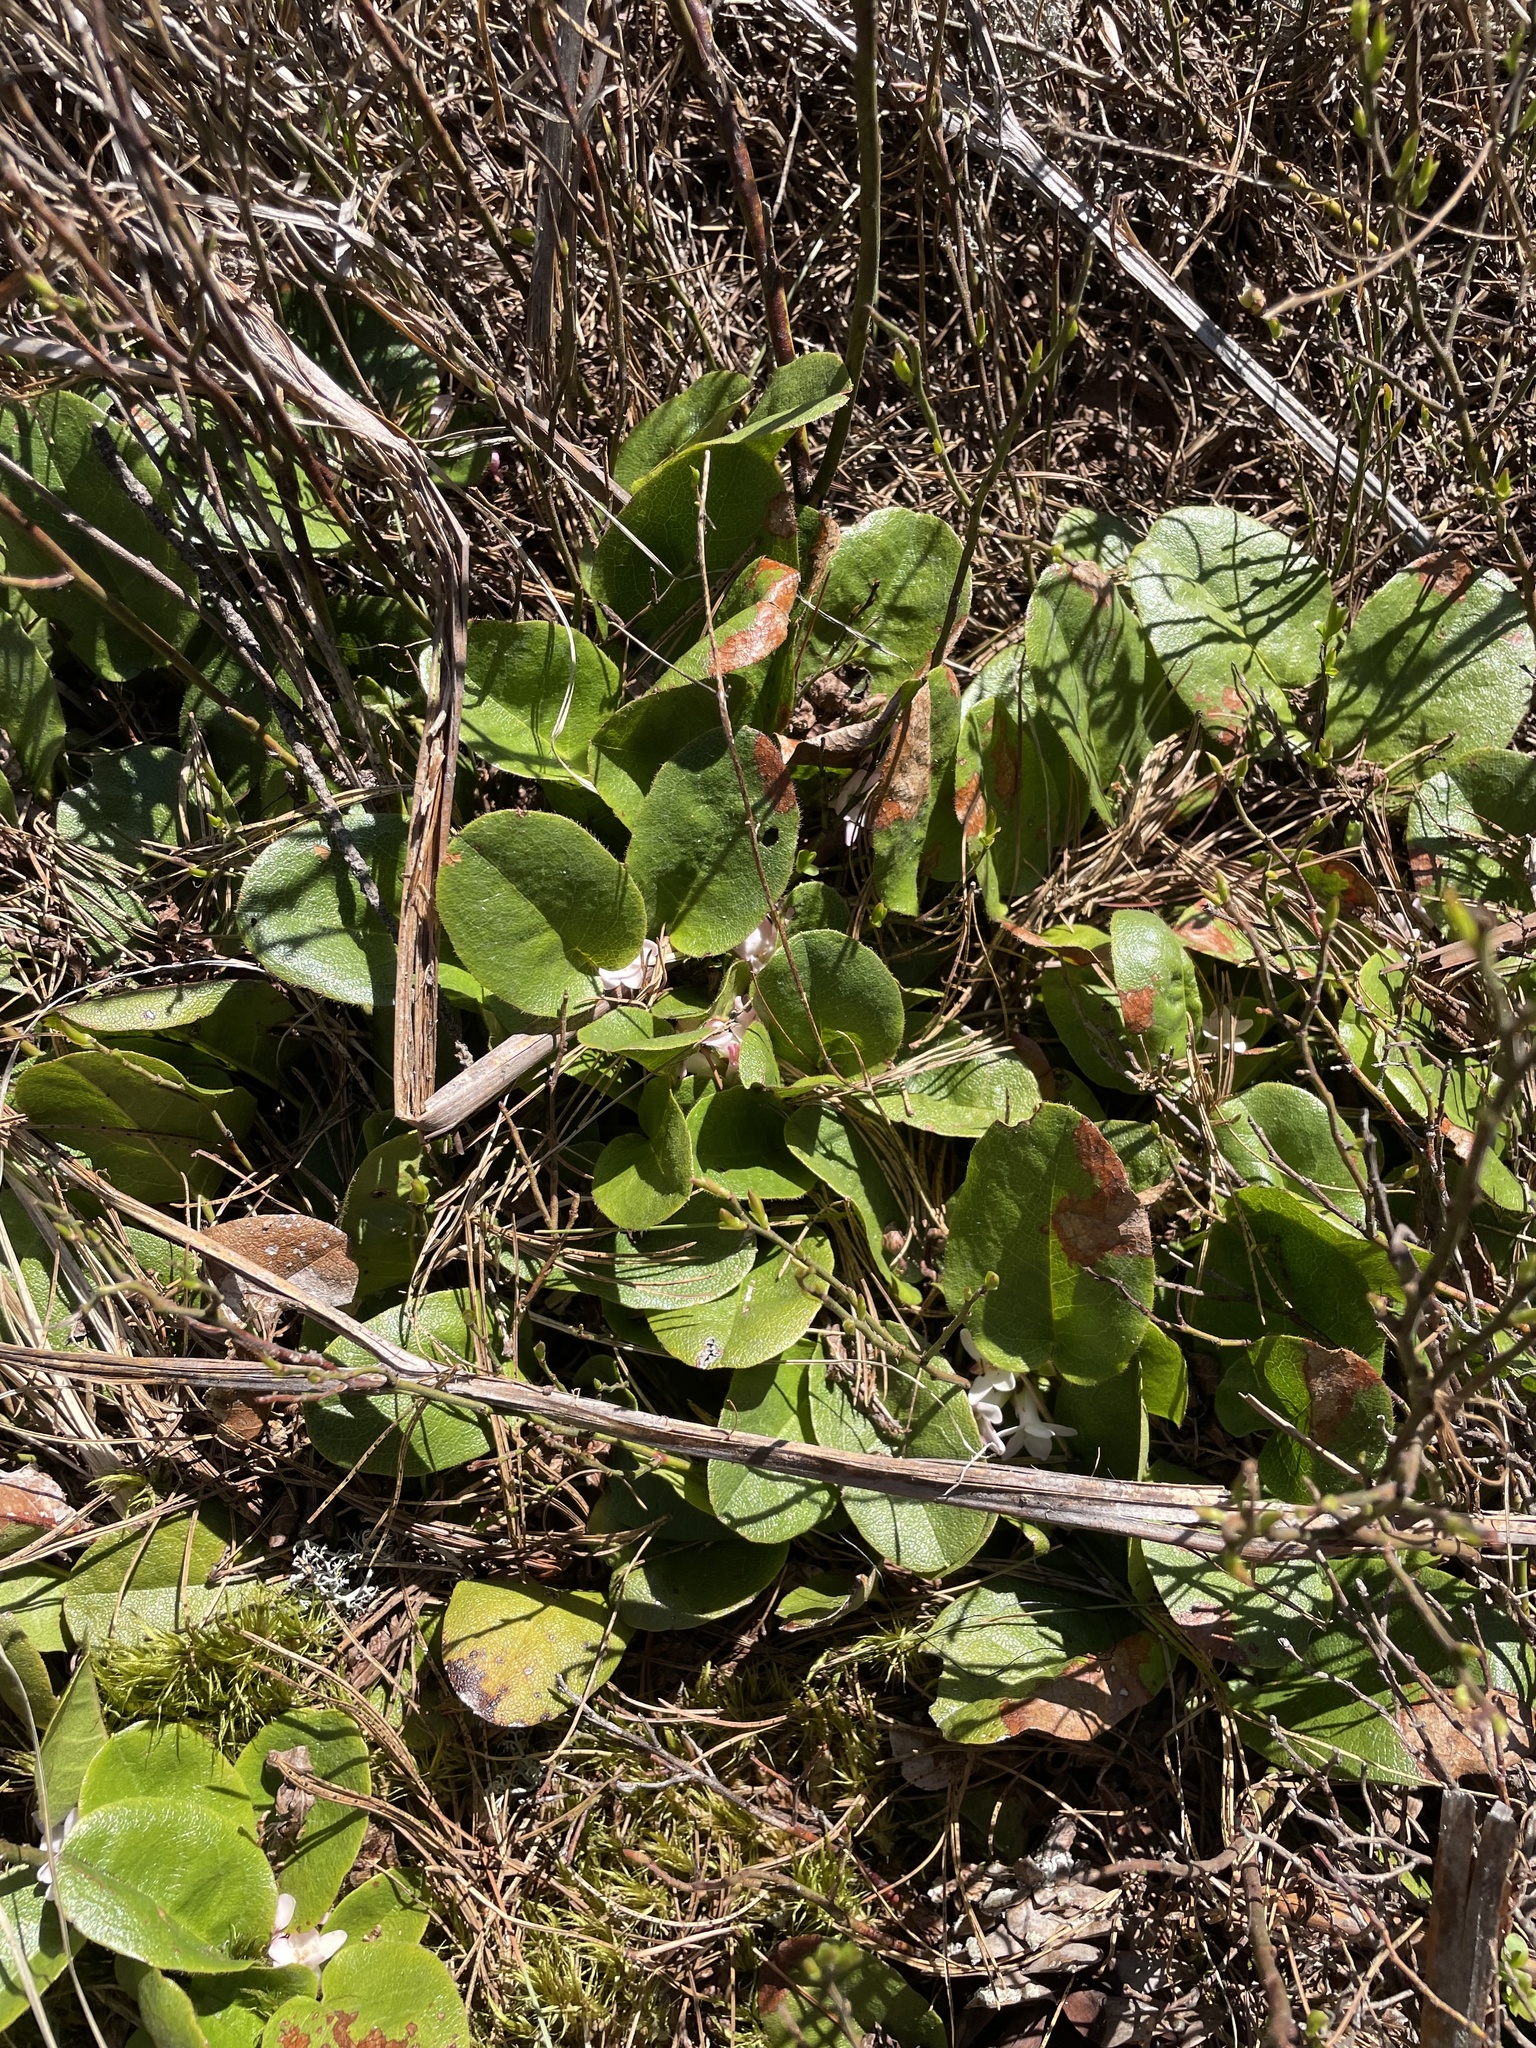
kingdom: Plantae
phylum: Tracheophyta
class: Magnoliopsida
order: Ericales
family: Ericaceae
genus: Epigaea
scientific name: Epigaea repens
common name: Gravelroot
